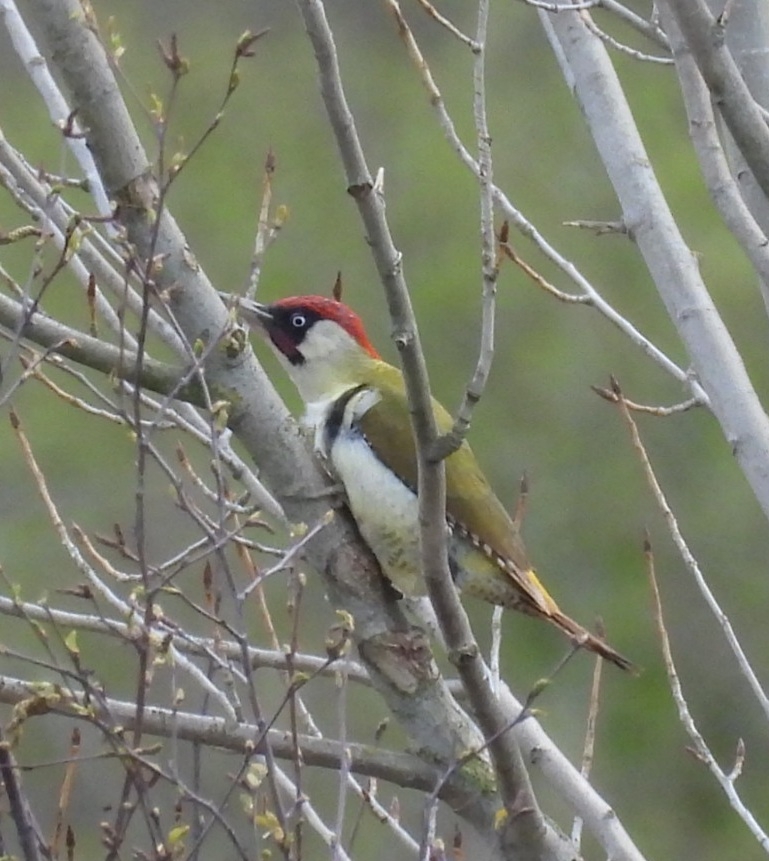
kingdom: Animalia
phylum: Chordata
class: Aves
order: Piciformes
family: Picidae
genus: Picus
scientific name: Picus viridis
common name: European green woodpecker
